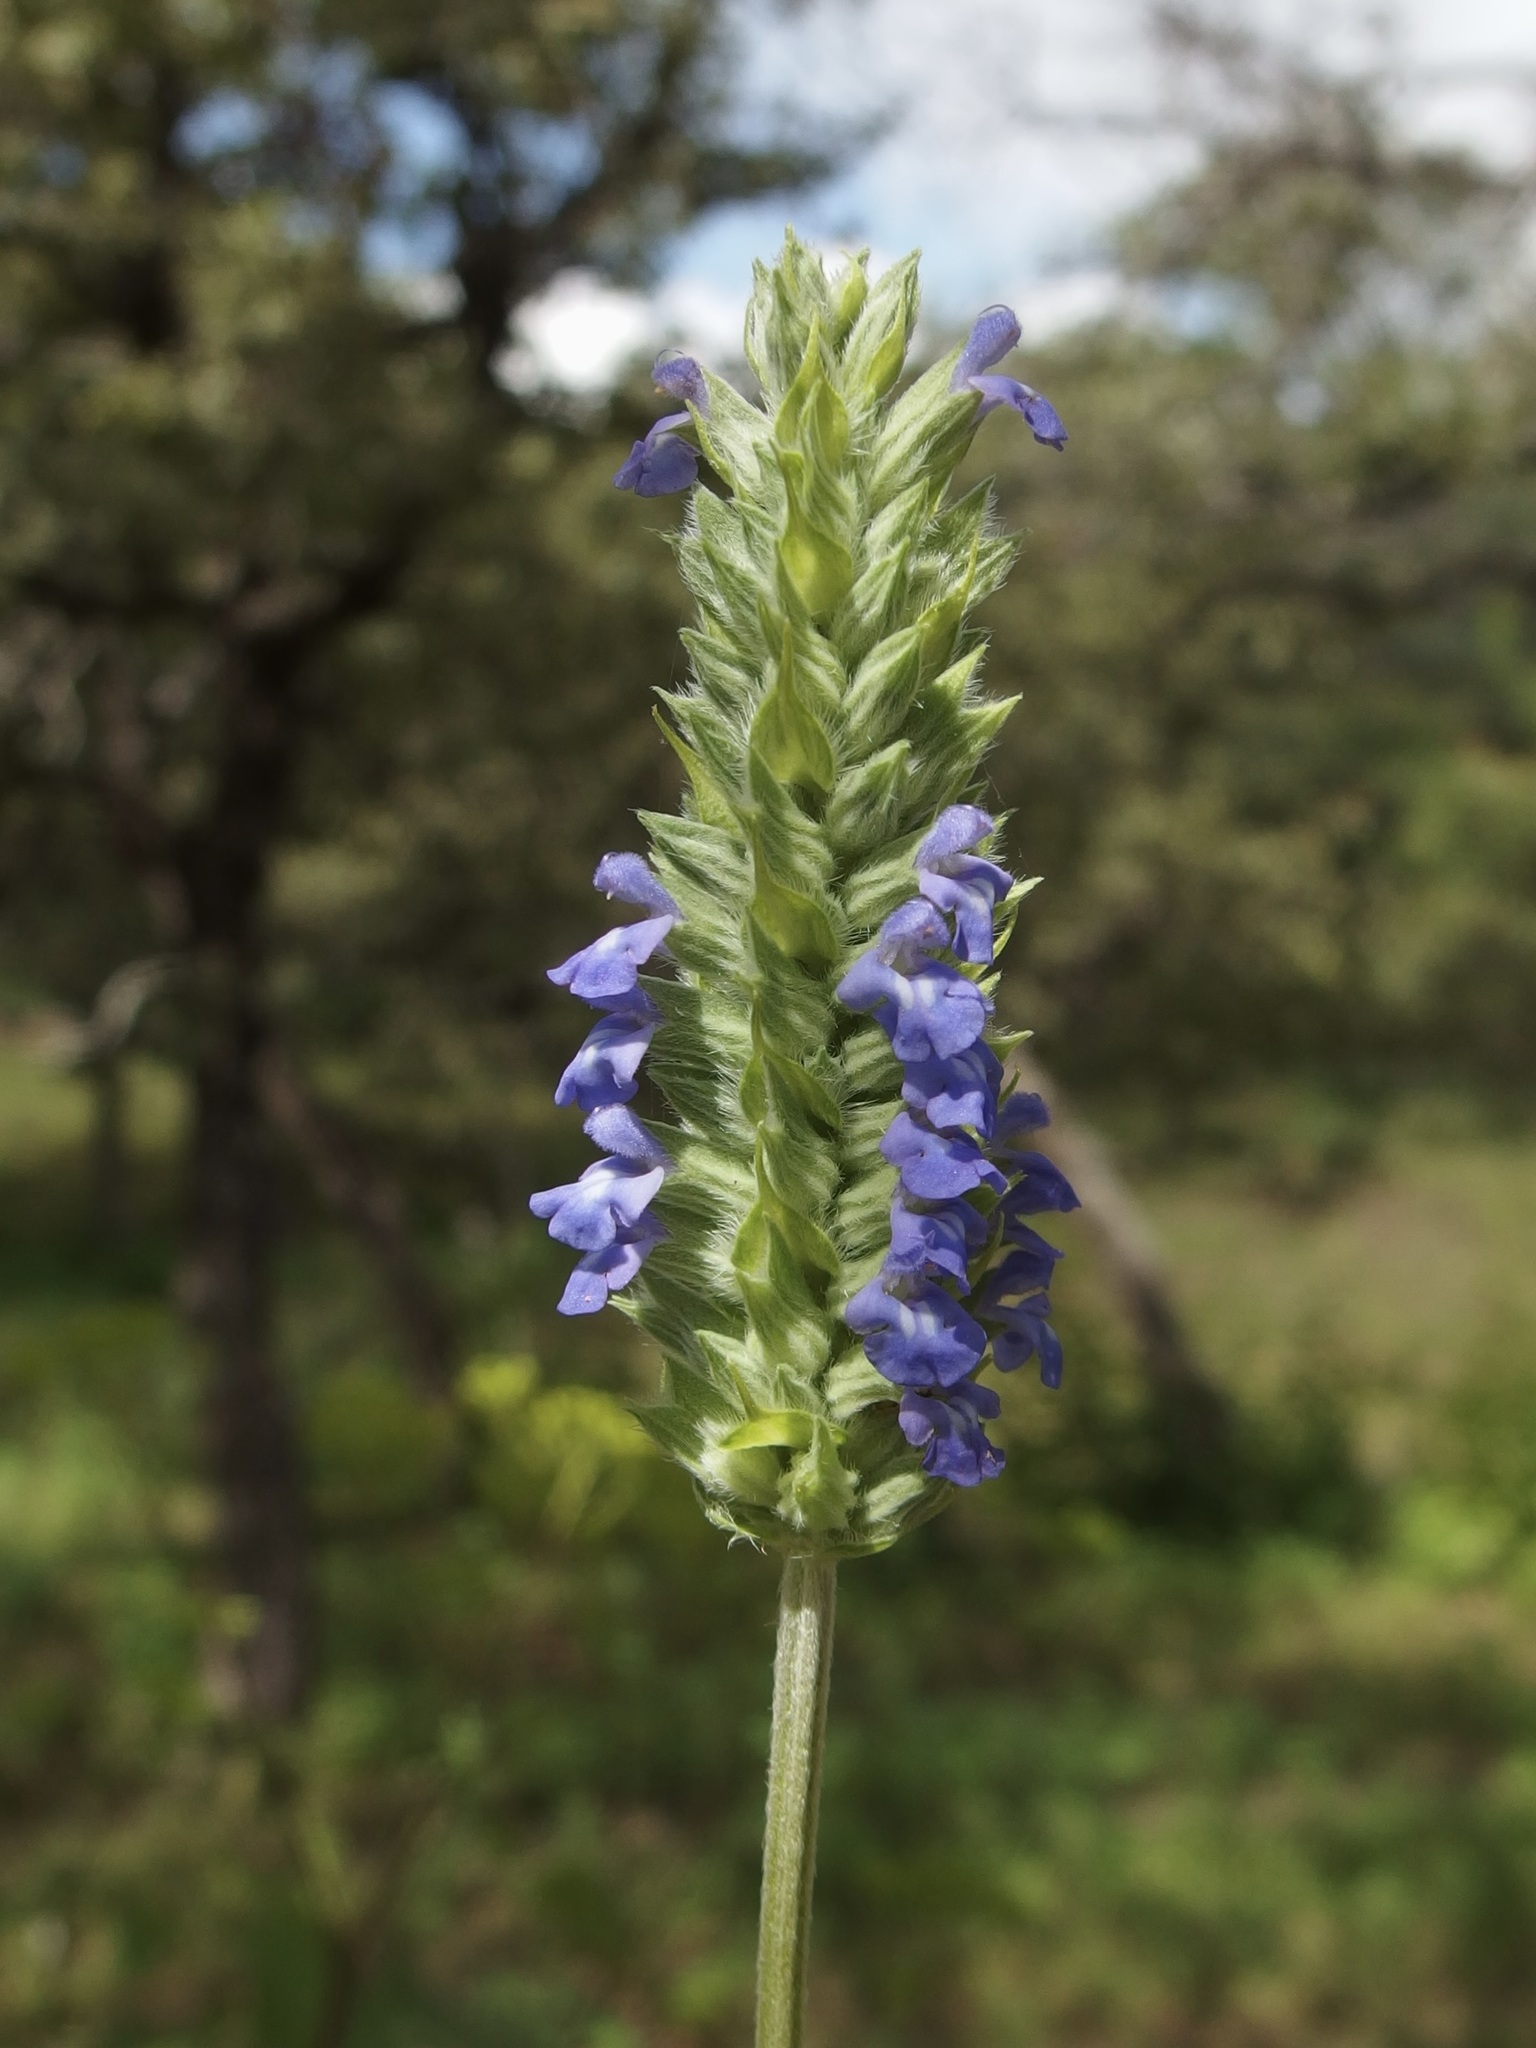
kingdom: Plantae
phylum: Tracheophyta
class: Magnoliopsida
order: Lamiales
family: Lamiaceae
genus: Salvia
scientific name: Salvia hispanica
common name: Chia
